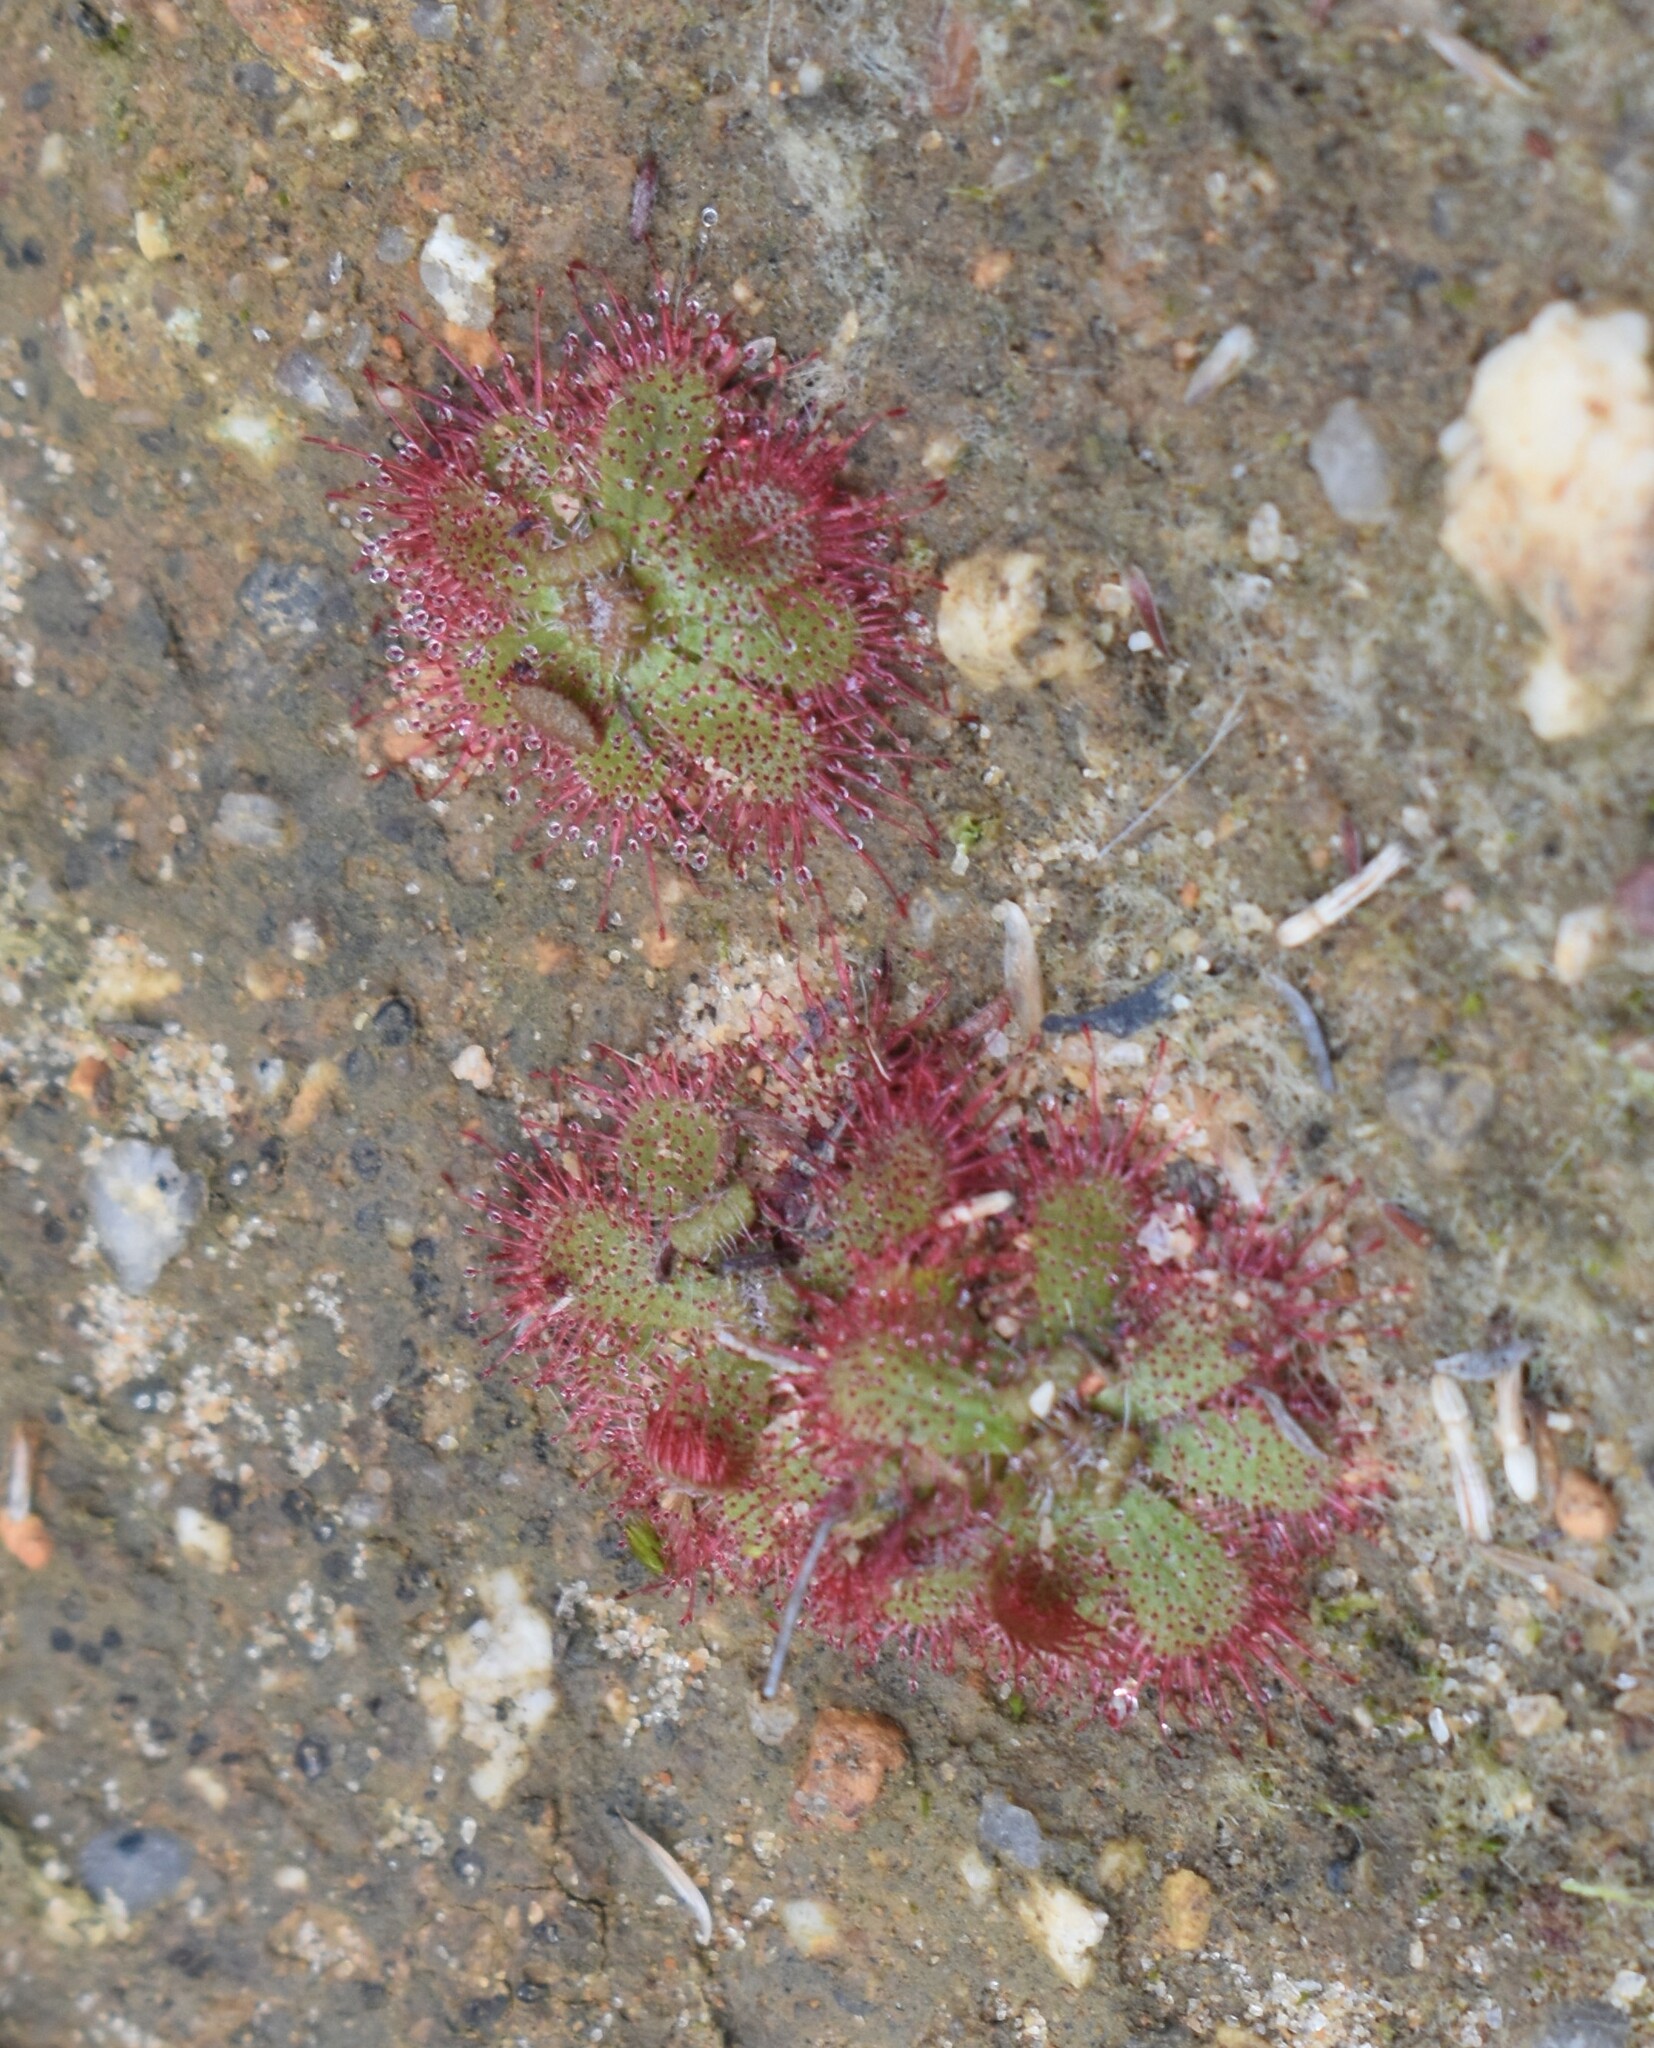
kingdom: Plantae
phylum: Tracheophyta
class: Magnoliopsida
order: Caryophyllales
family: Droseraceae
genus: Drosera
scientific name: Drosera trinervia
